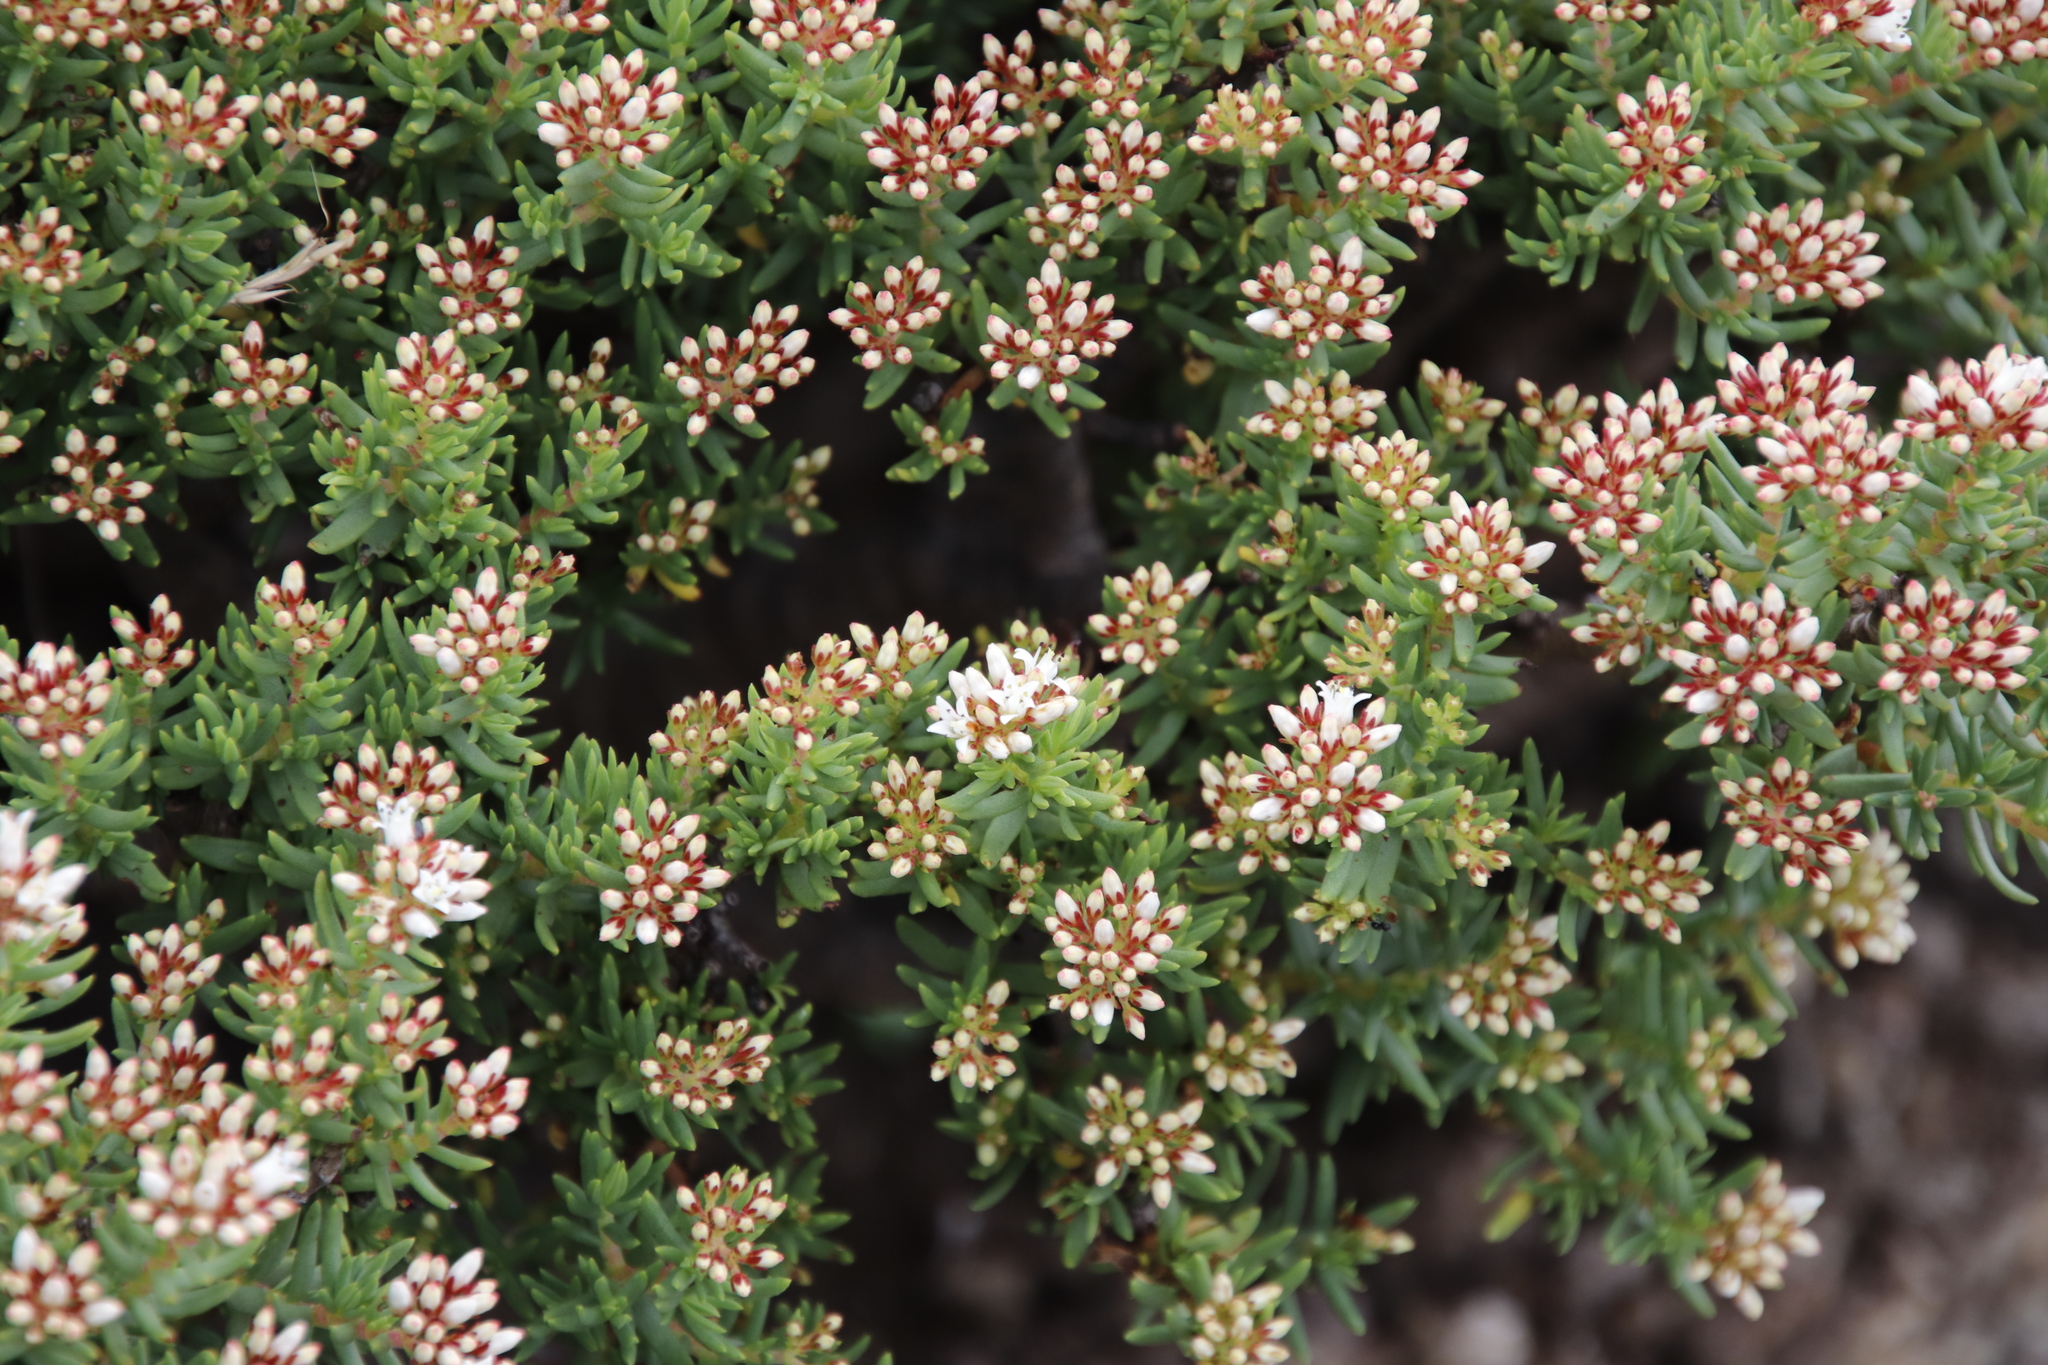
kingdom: Plantae
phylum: Tracheophyta
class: Magnoliopsida
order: Saxifragales
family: Crassulaceae
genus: Crassula
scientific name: Crassula sarcocaulis
